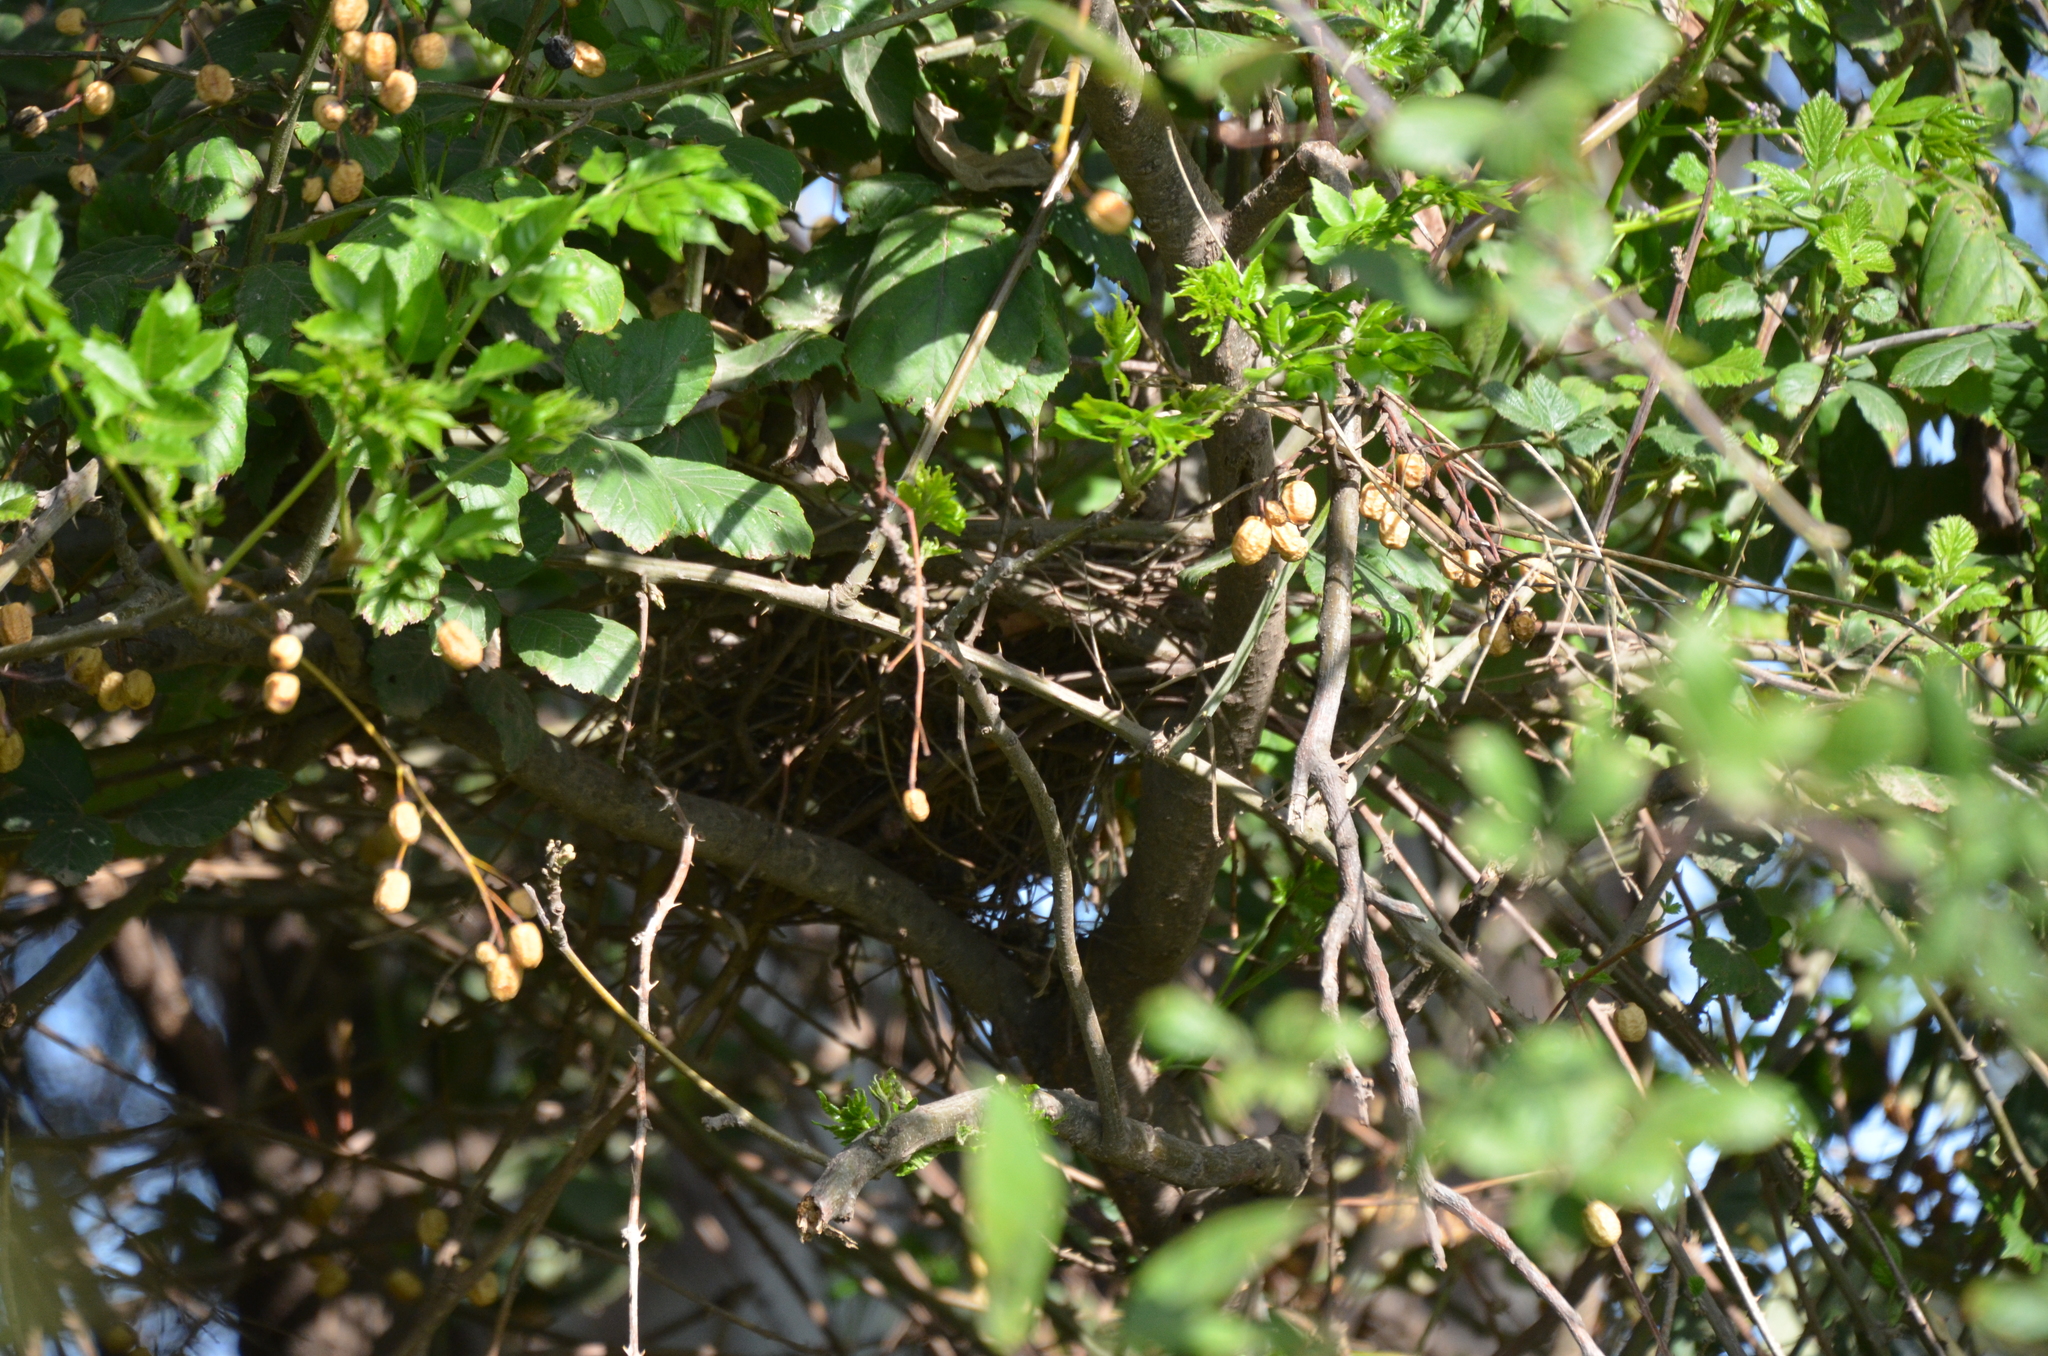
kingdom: Animalia
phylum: Chordata
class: Aves
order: Passeriformes
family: Furnariidae
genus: Synallaxis
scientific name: Synallaxis frontalis
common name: Sooty-fronted spinetail
